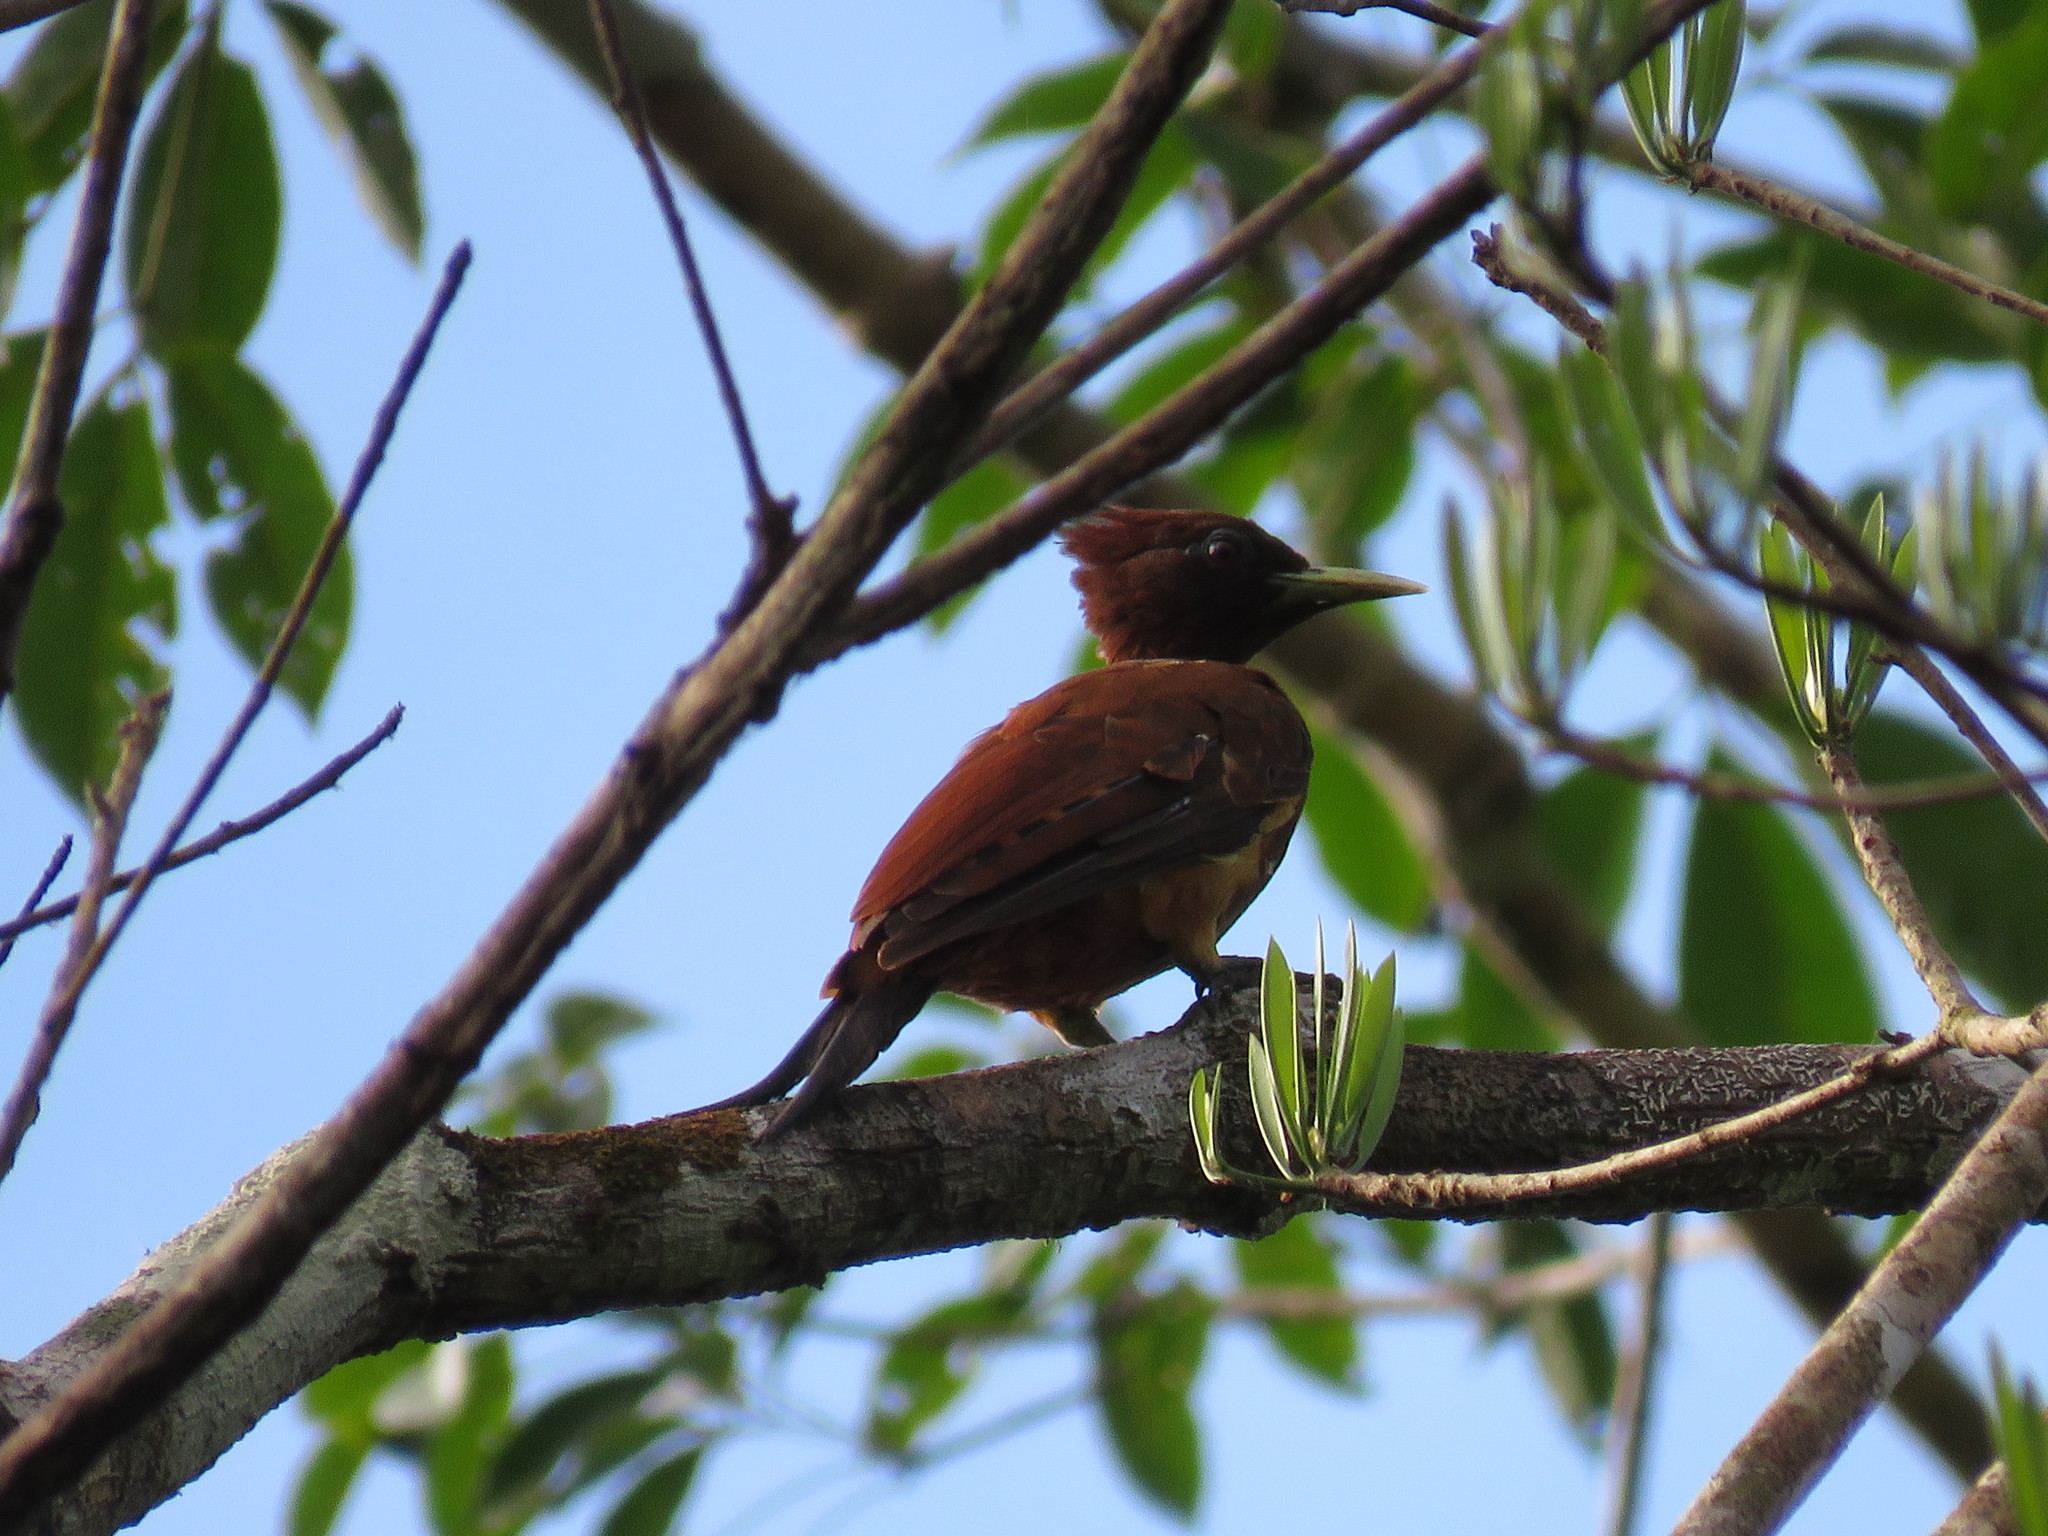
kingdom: Animalia
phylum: Chordata
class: Aves
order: Piciformes
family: Picidae
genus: Celeus
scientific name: Celeus elegans
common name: Chestnut woodpecker
